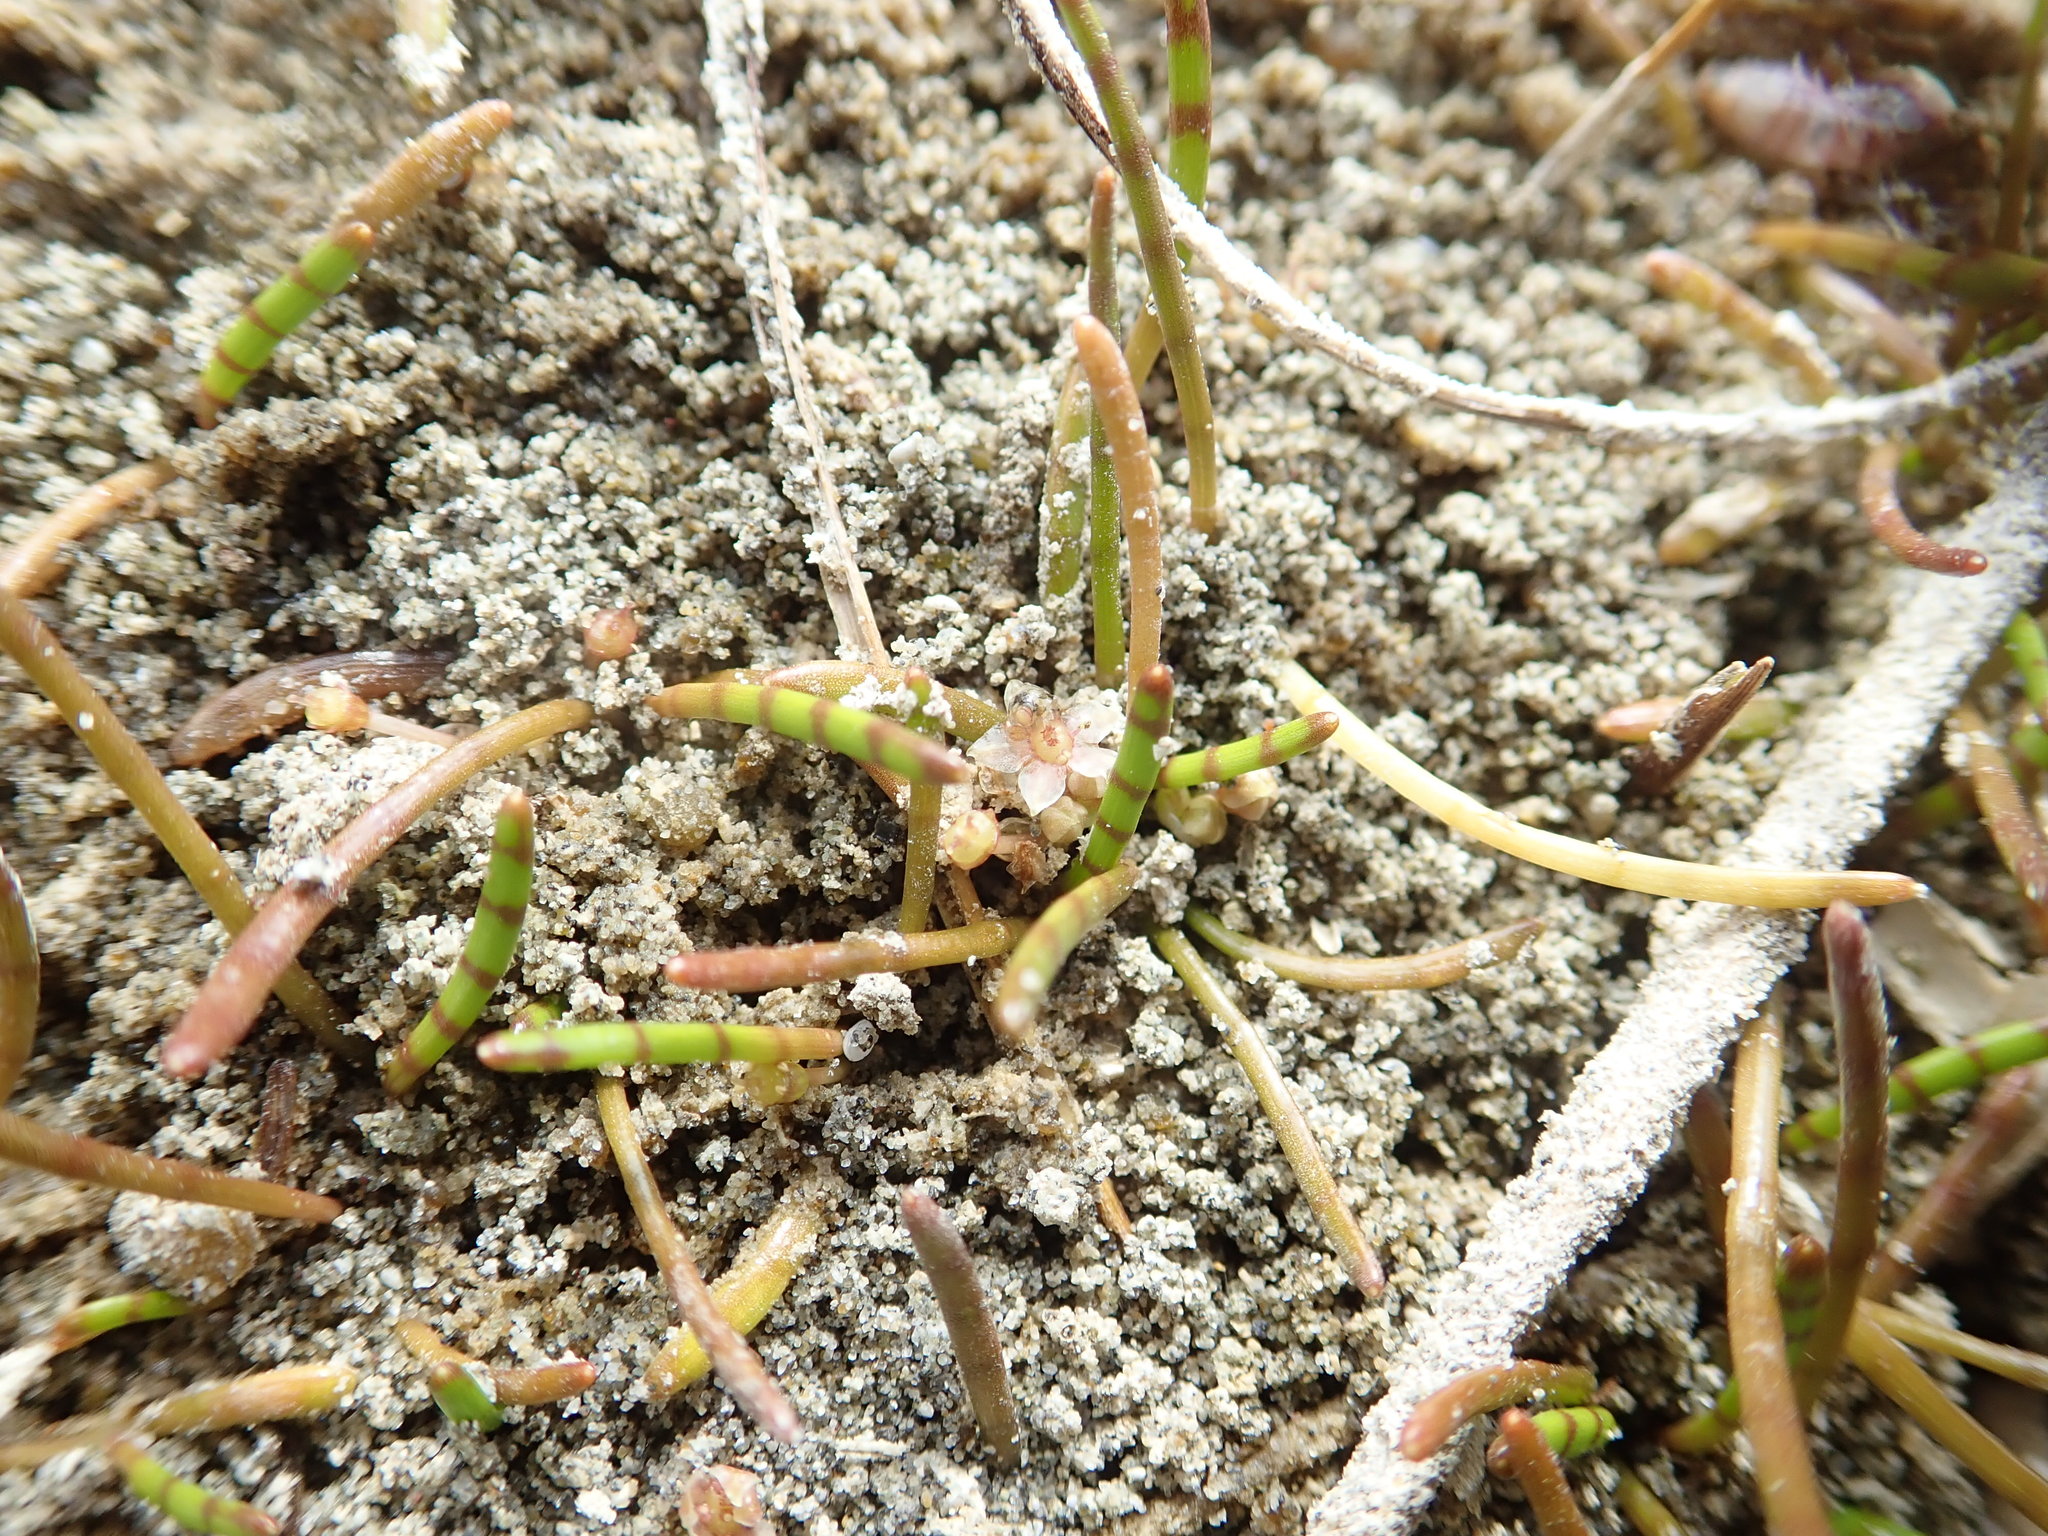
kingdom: Plantae
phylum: Tracheophyta
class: Magnoliopsida
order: Apiales
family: Apiaceae
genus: Lilaeopsis
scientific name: Lilaeopsis novae-zelandiae
